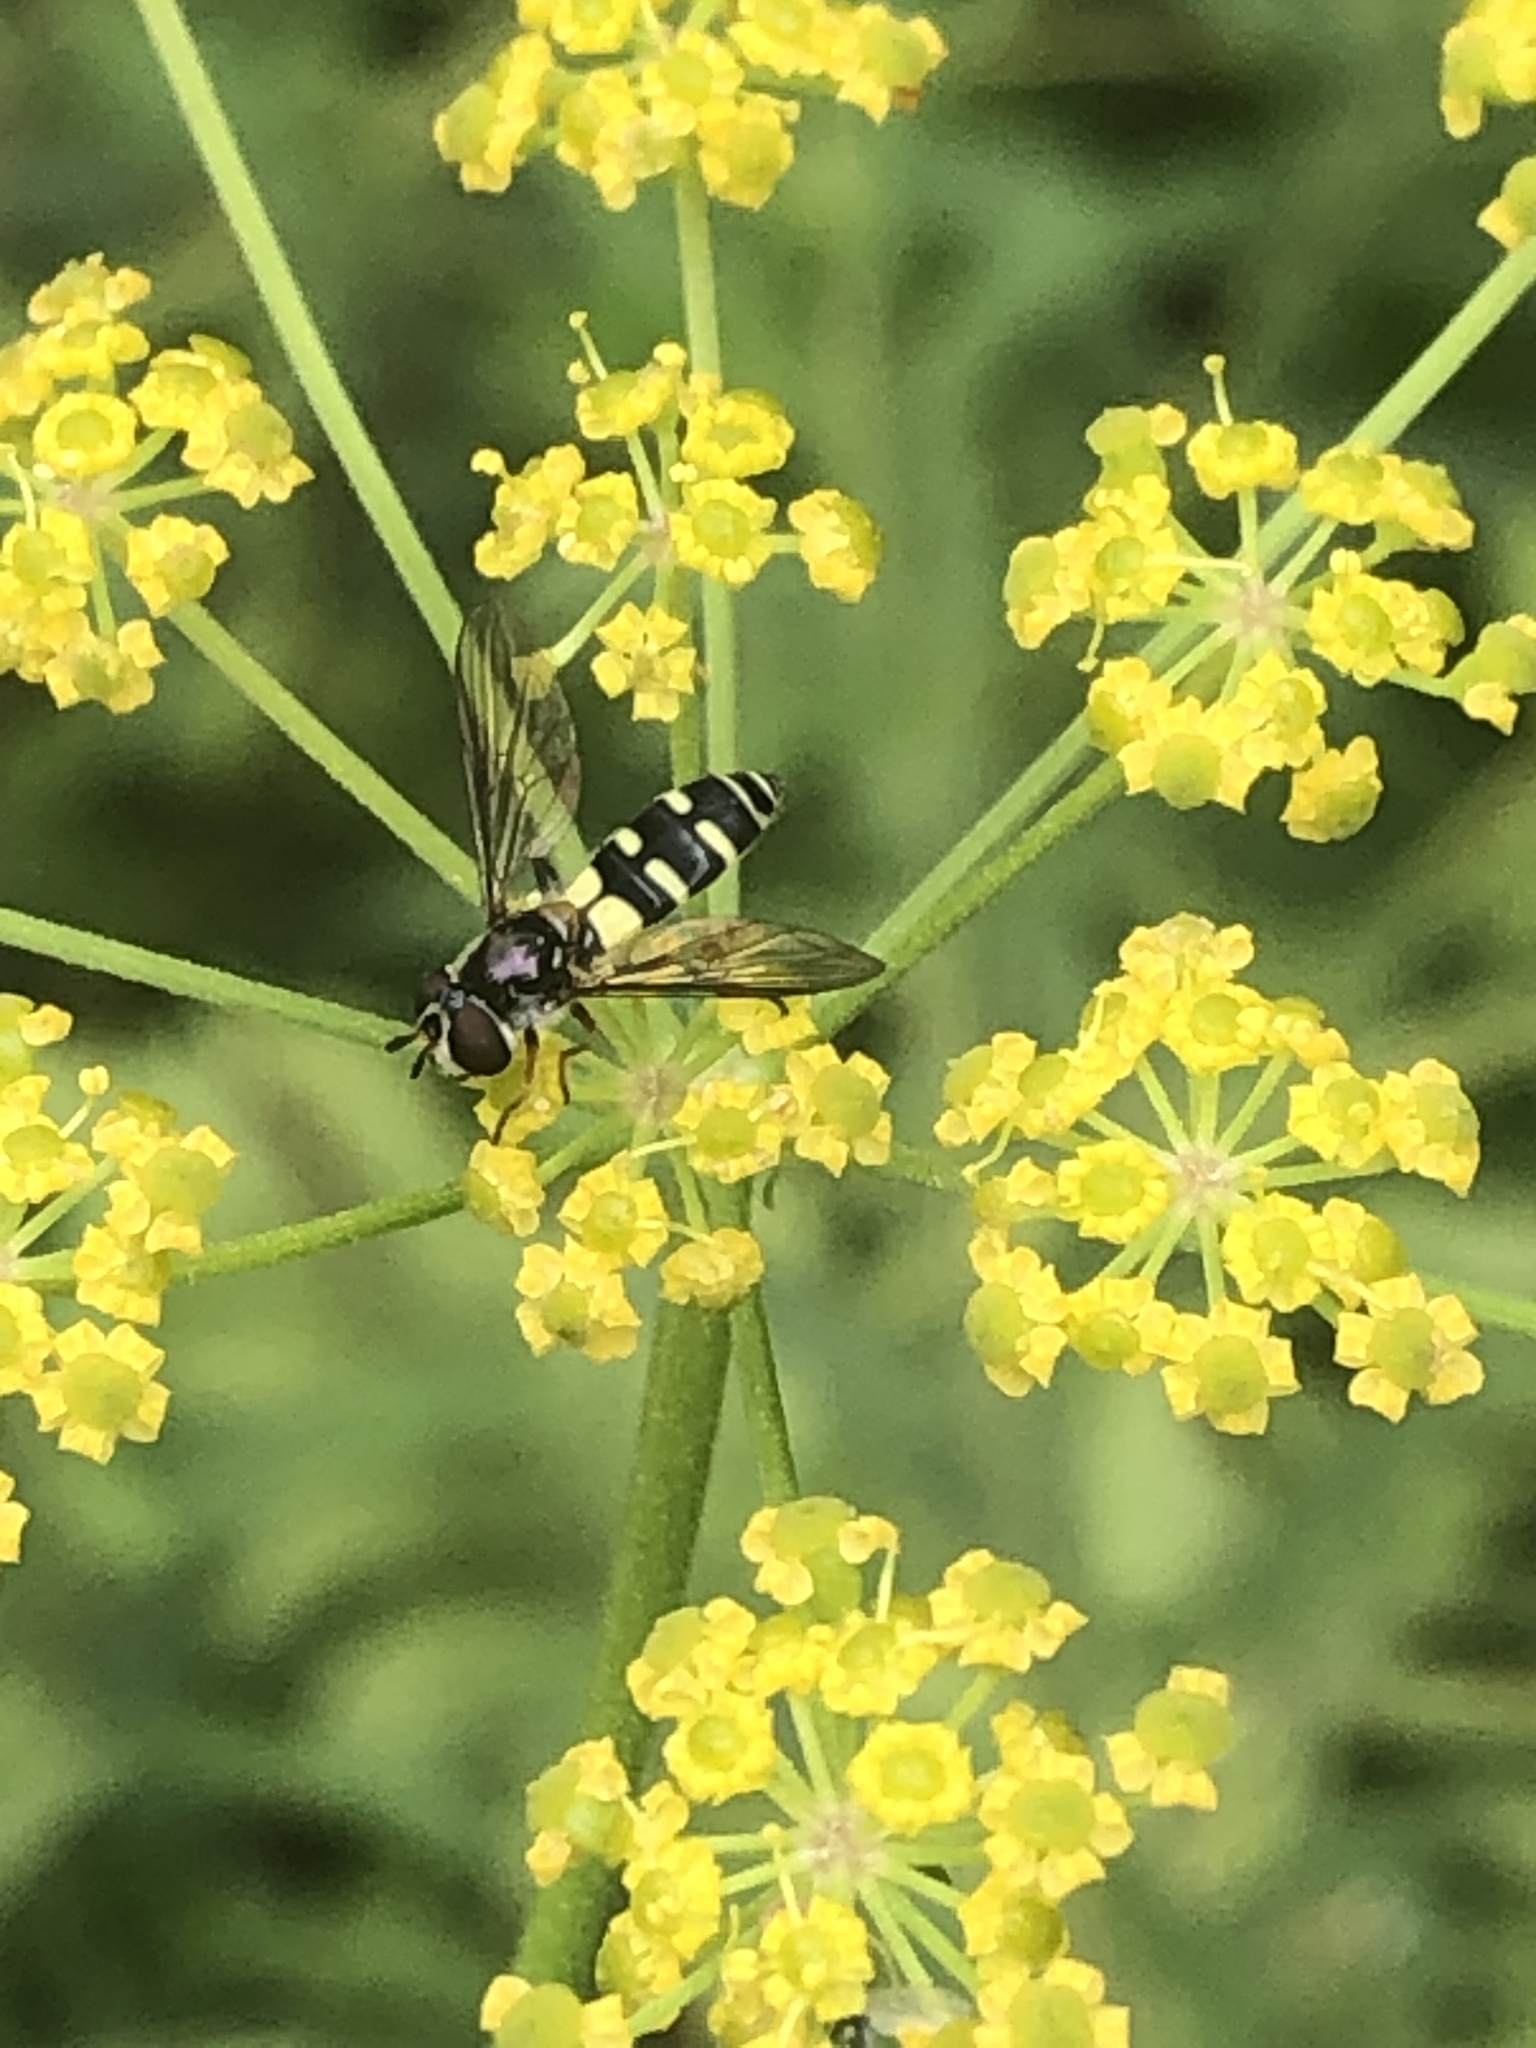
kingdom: Animalia
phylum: Arthropoda
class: Insecta
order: Diptera
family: Syrphidae
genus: Melangyna
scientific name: Melangyna fisherii
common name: Large-spotted halfband
